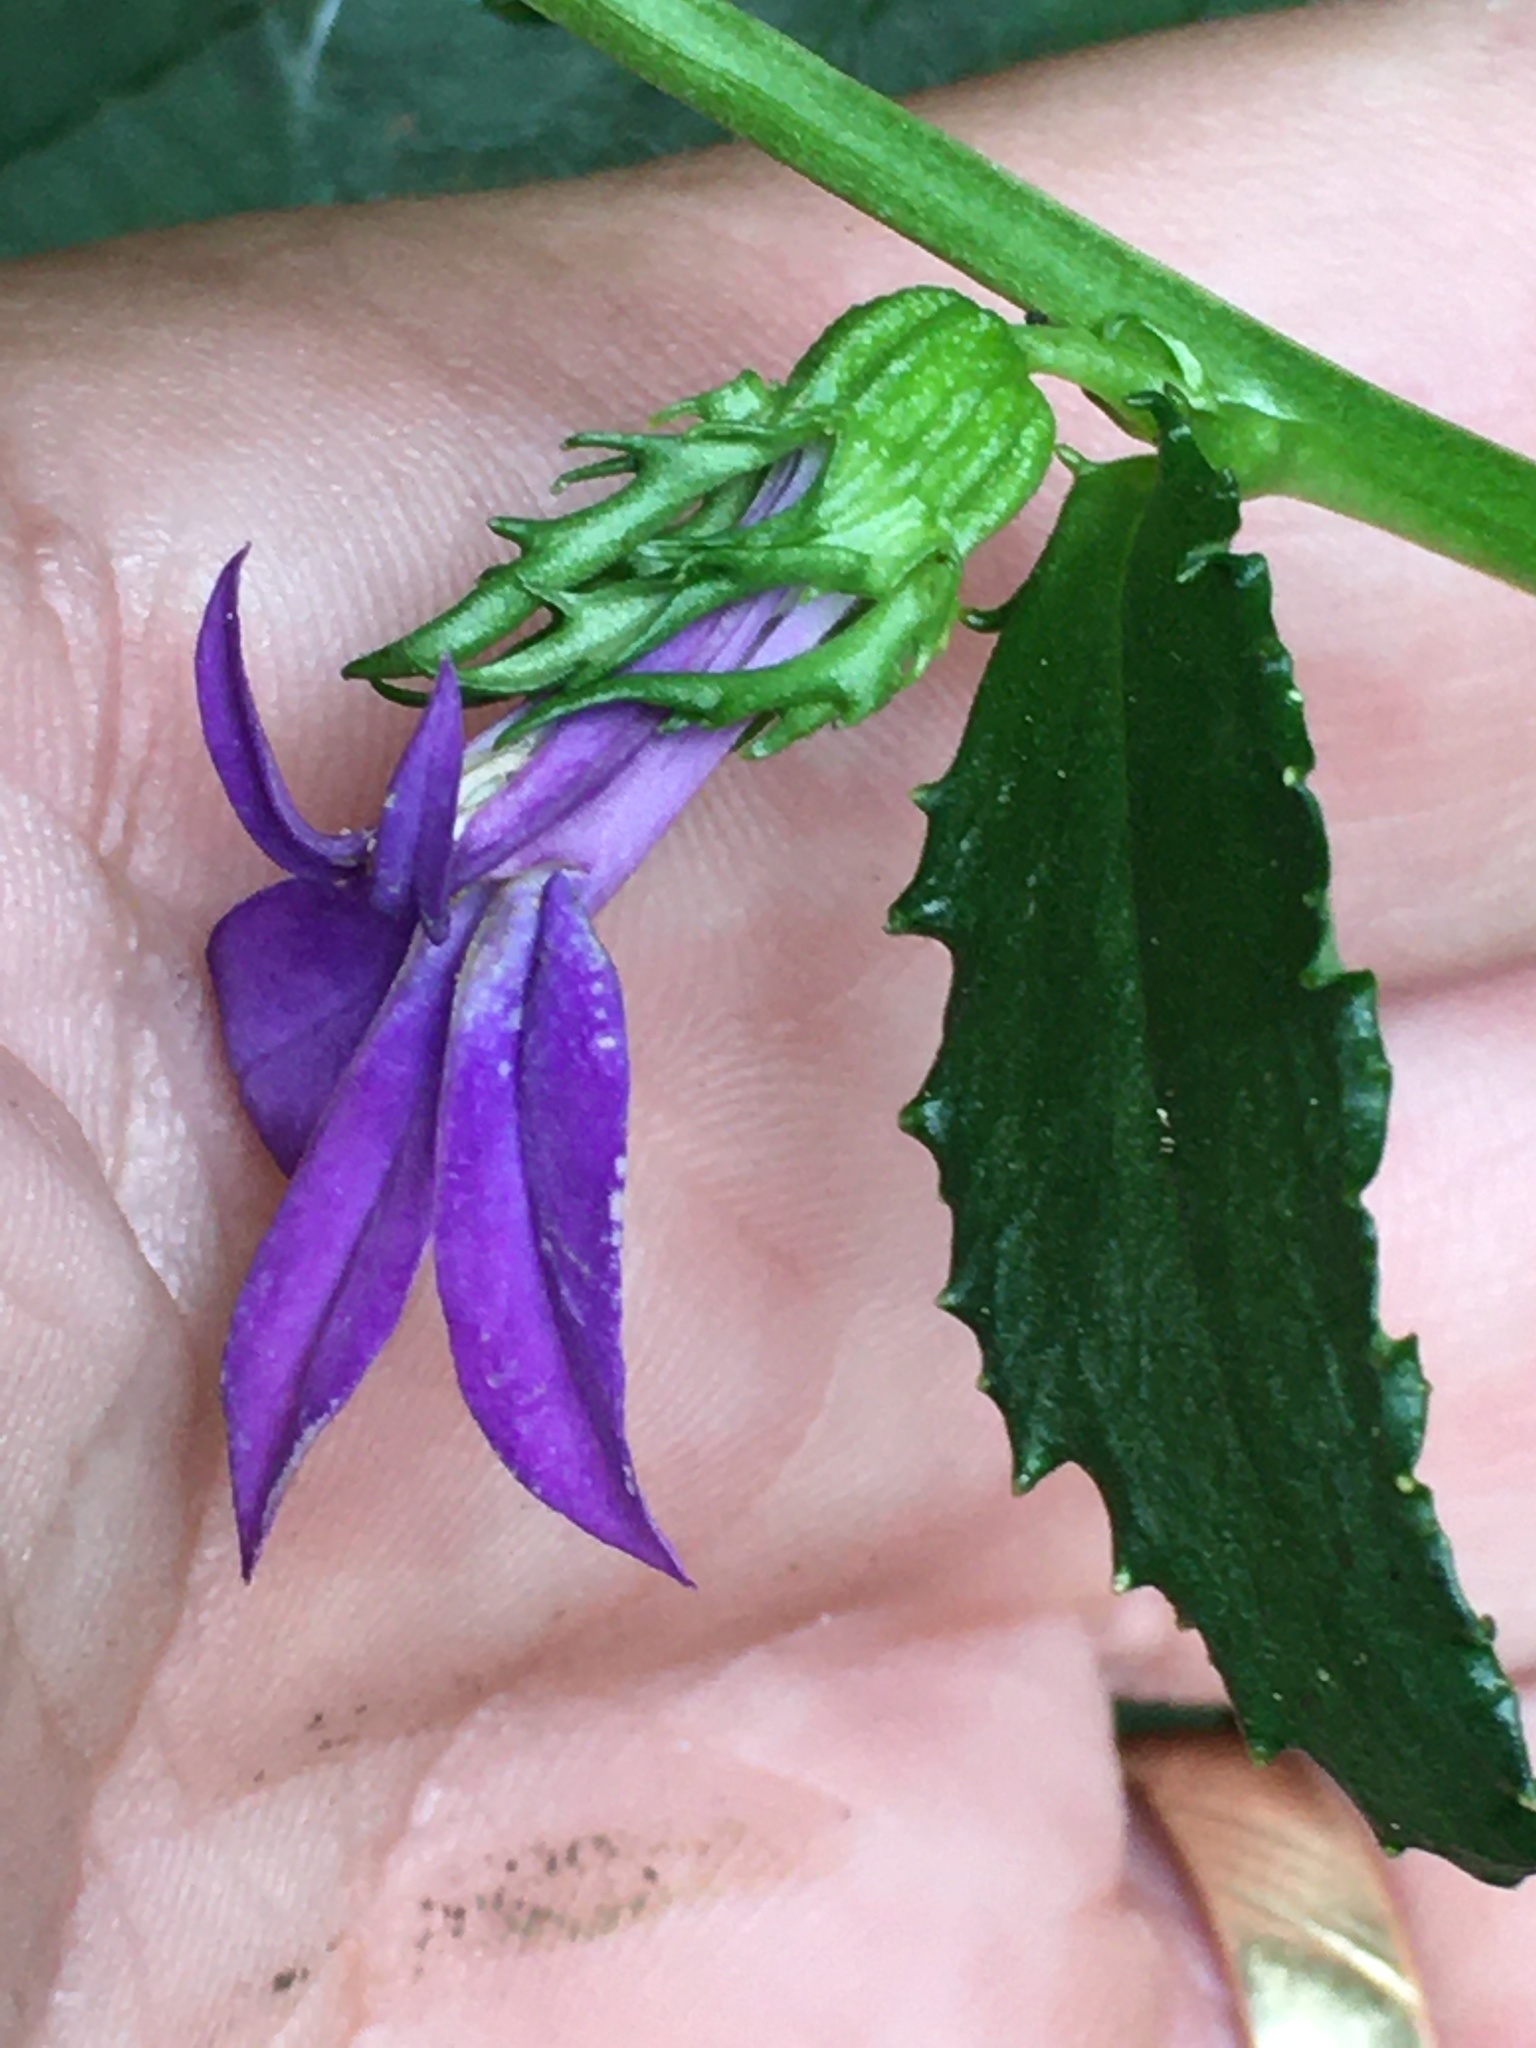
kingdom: Plantae
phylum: Tracheophyta
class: Magnoliopsida
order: Asterales
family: Campanulaceae
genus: Lobelia
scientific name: Lobelia georgiana
